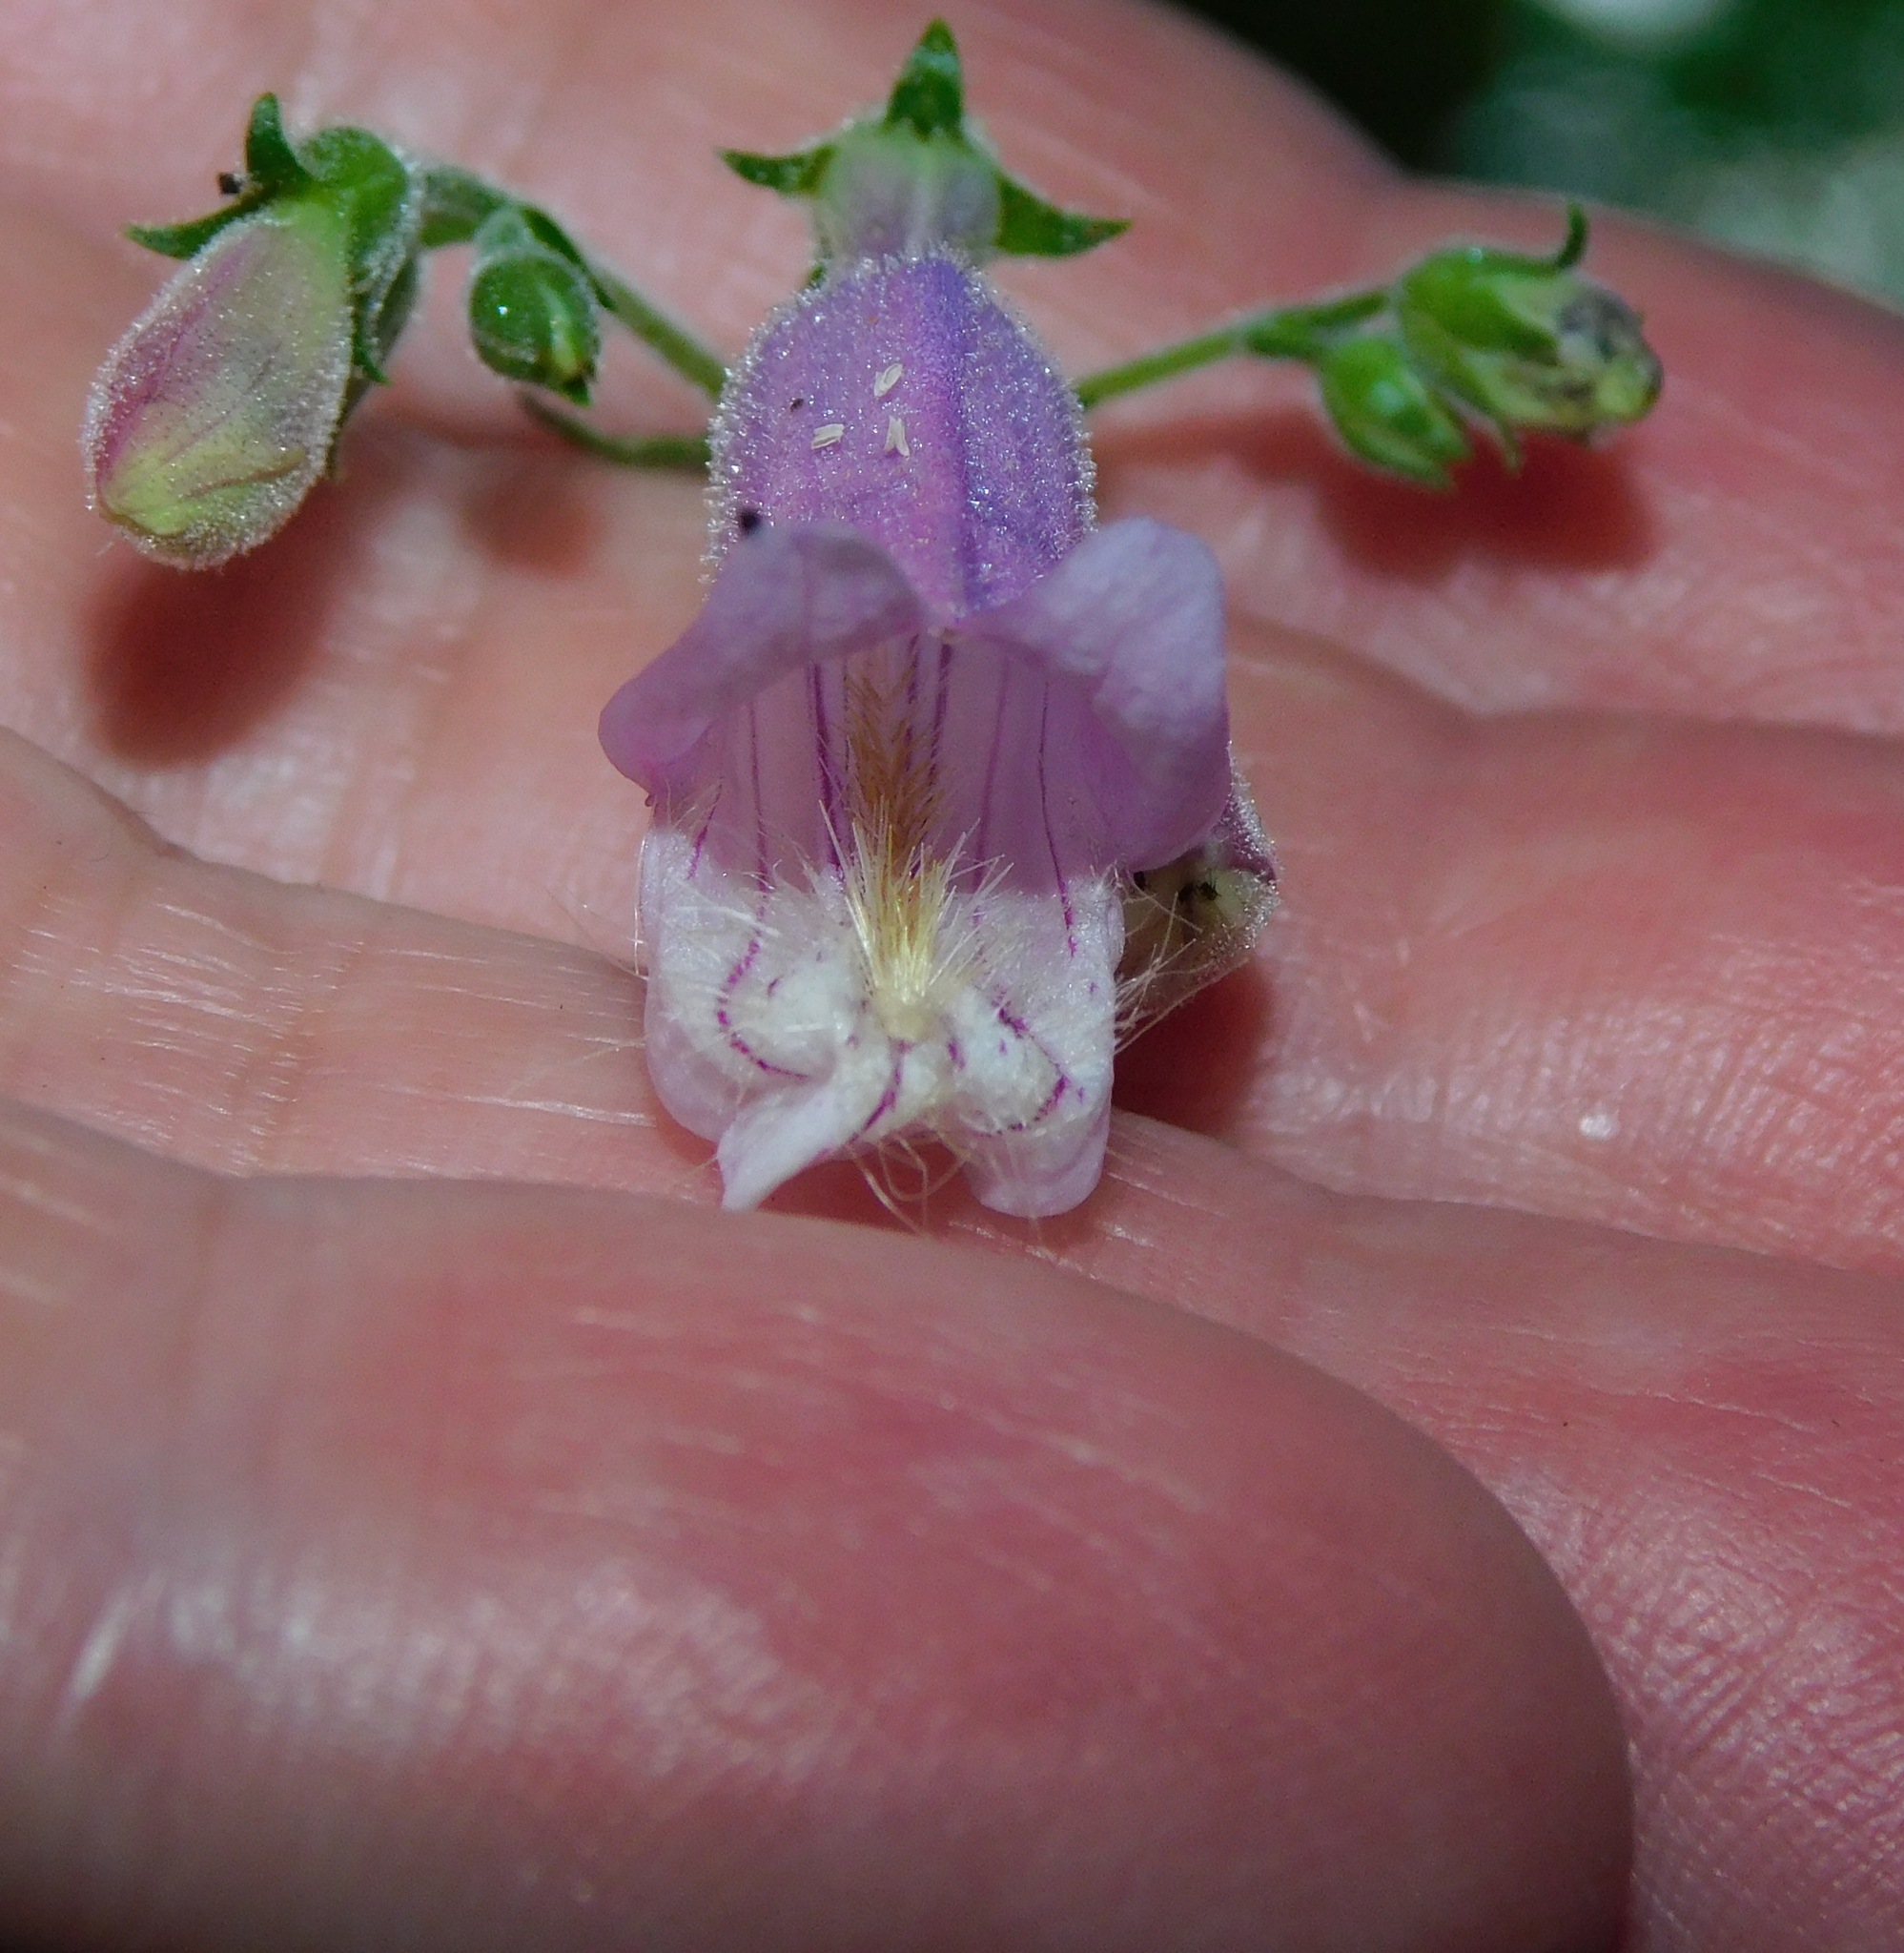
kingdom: Plantae
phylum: Tracheophyta
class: Magnoliopsida
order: Lamiales
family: Plantaginaceae
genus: Penstemon
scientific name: Penstemon canescens
